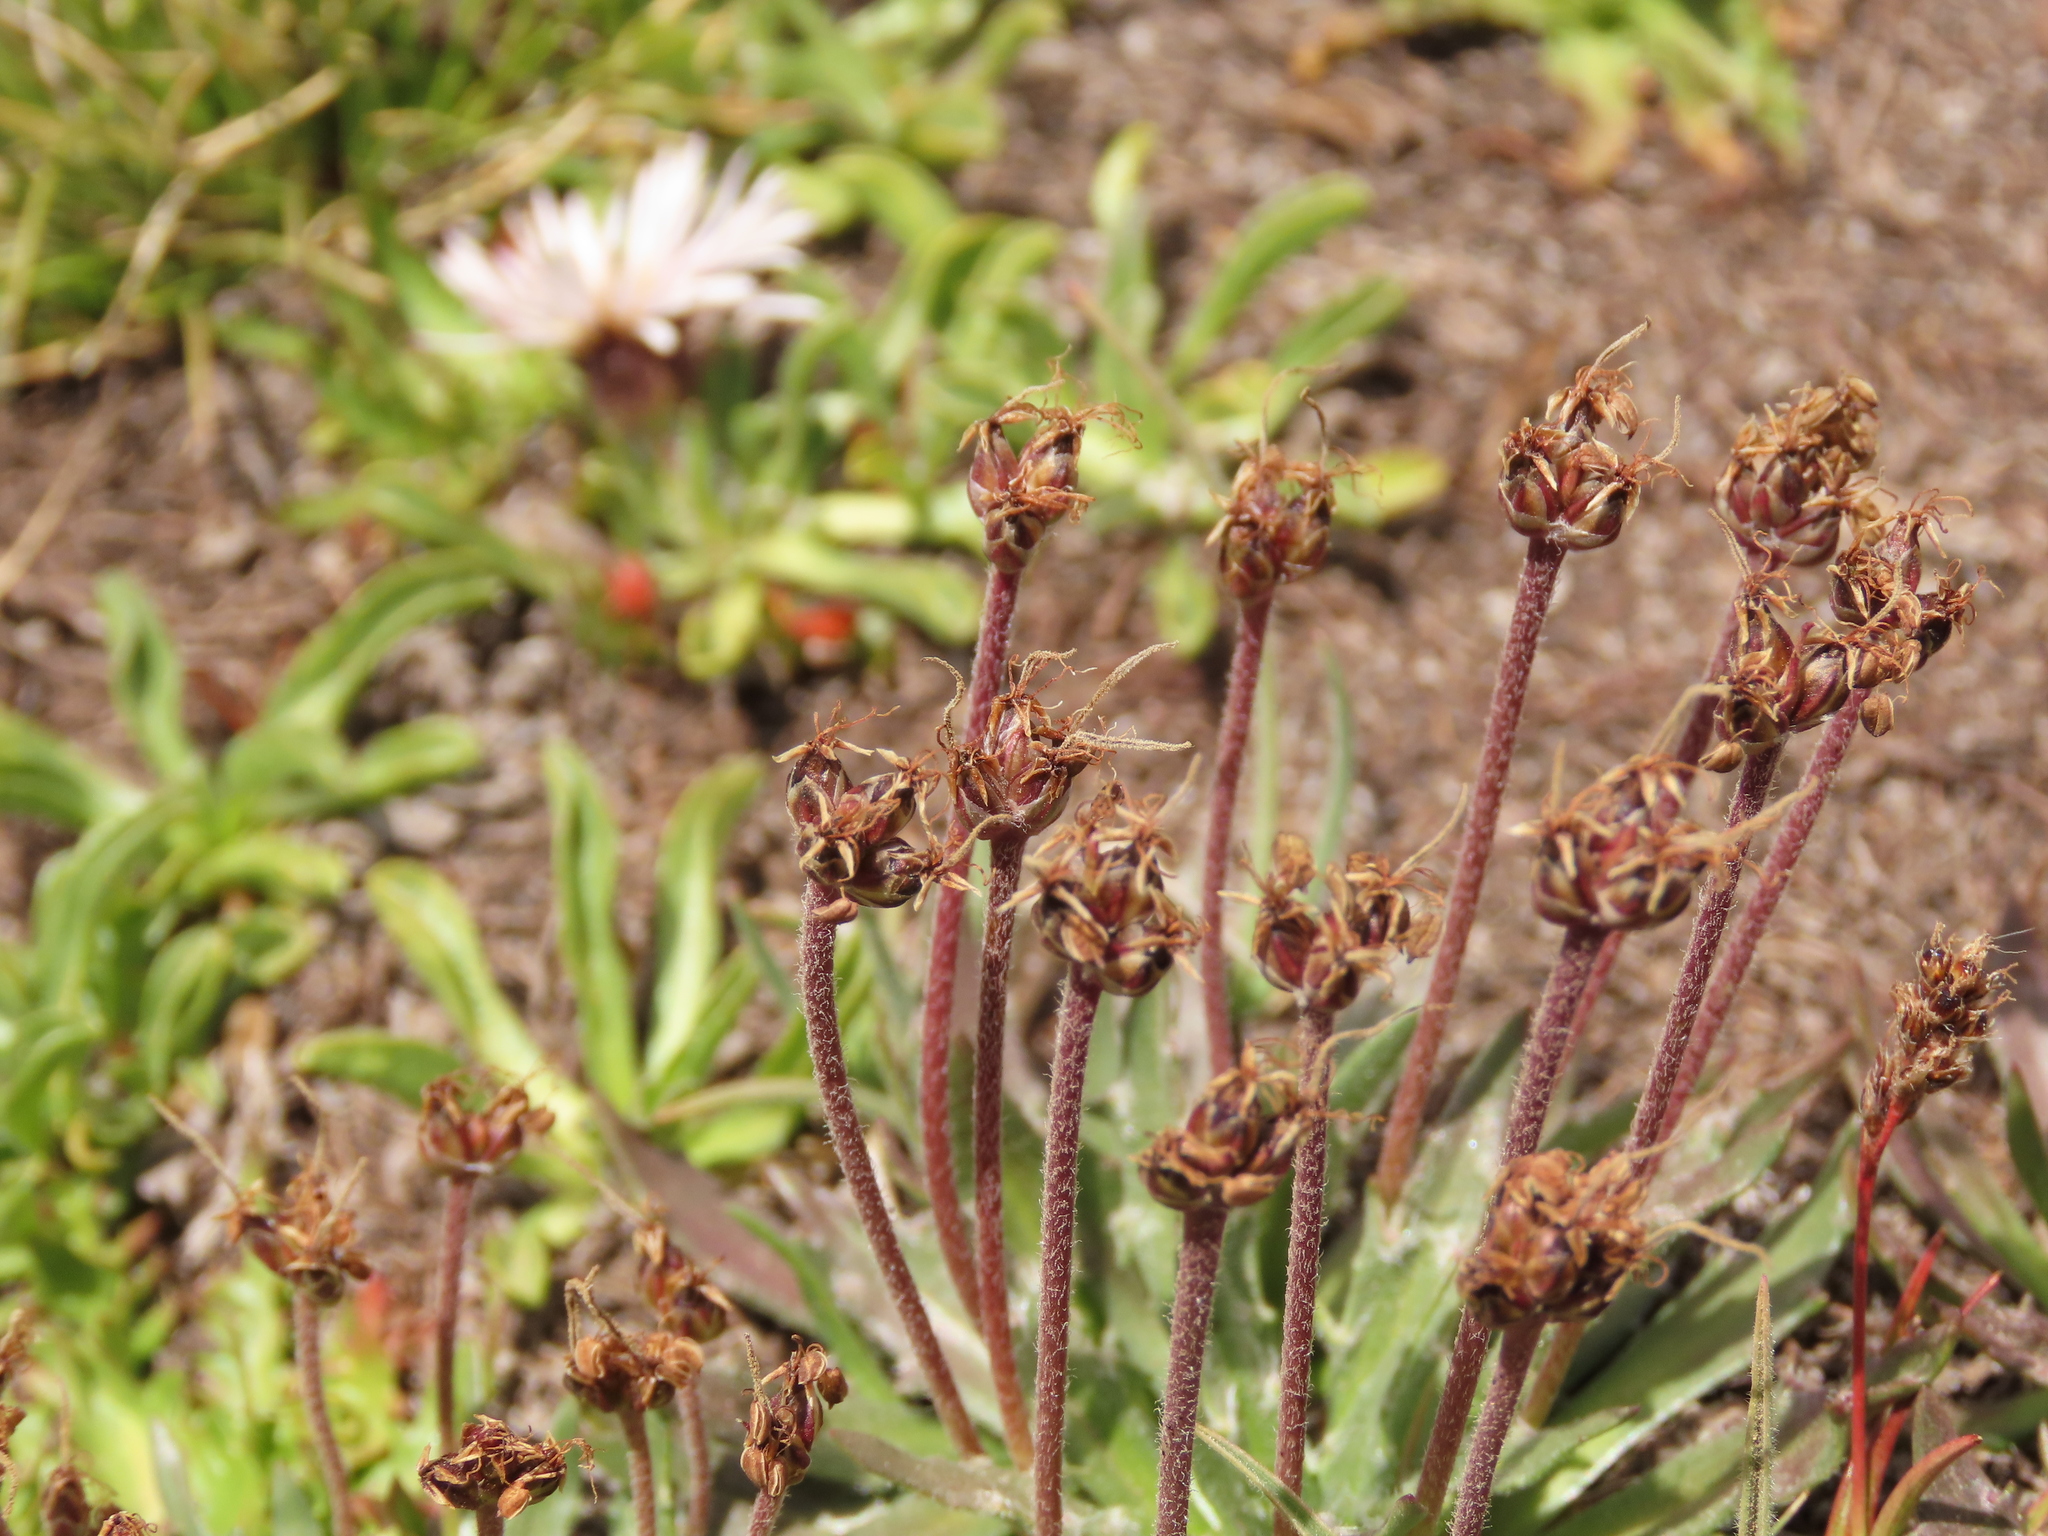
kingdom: Plantae
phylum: Tracheophyta
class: Magnoliopsida
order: Lamiales
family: Plantaginaceae
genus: Plantago
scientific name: Plantago barbata
